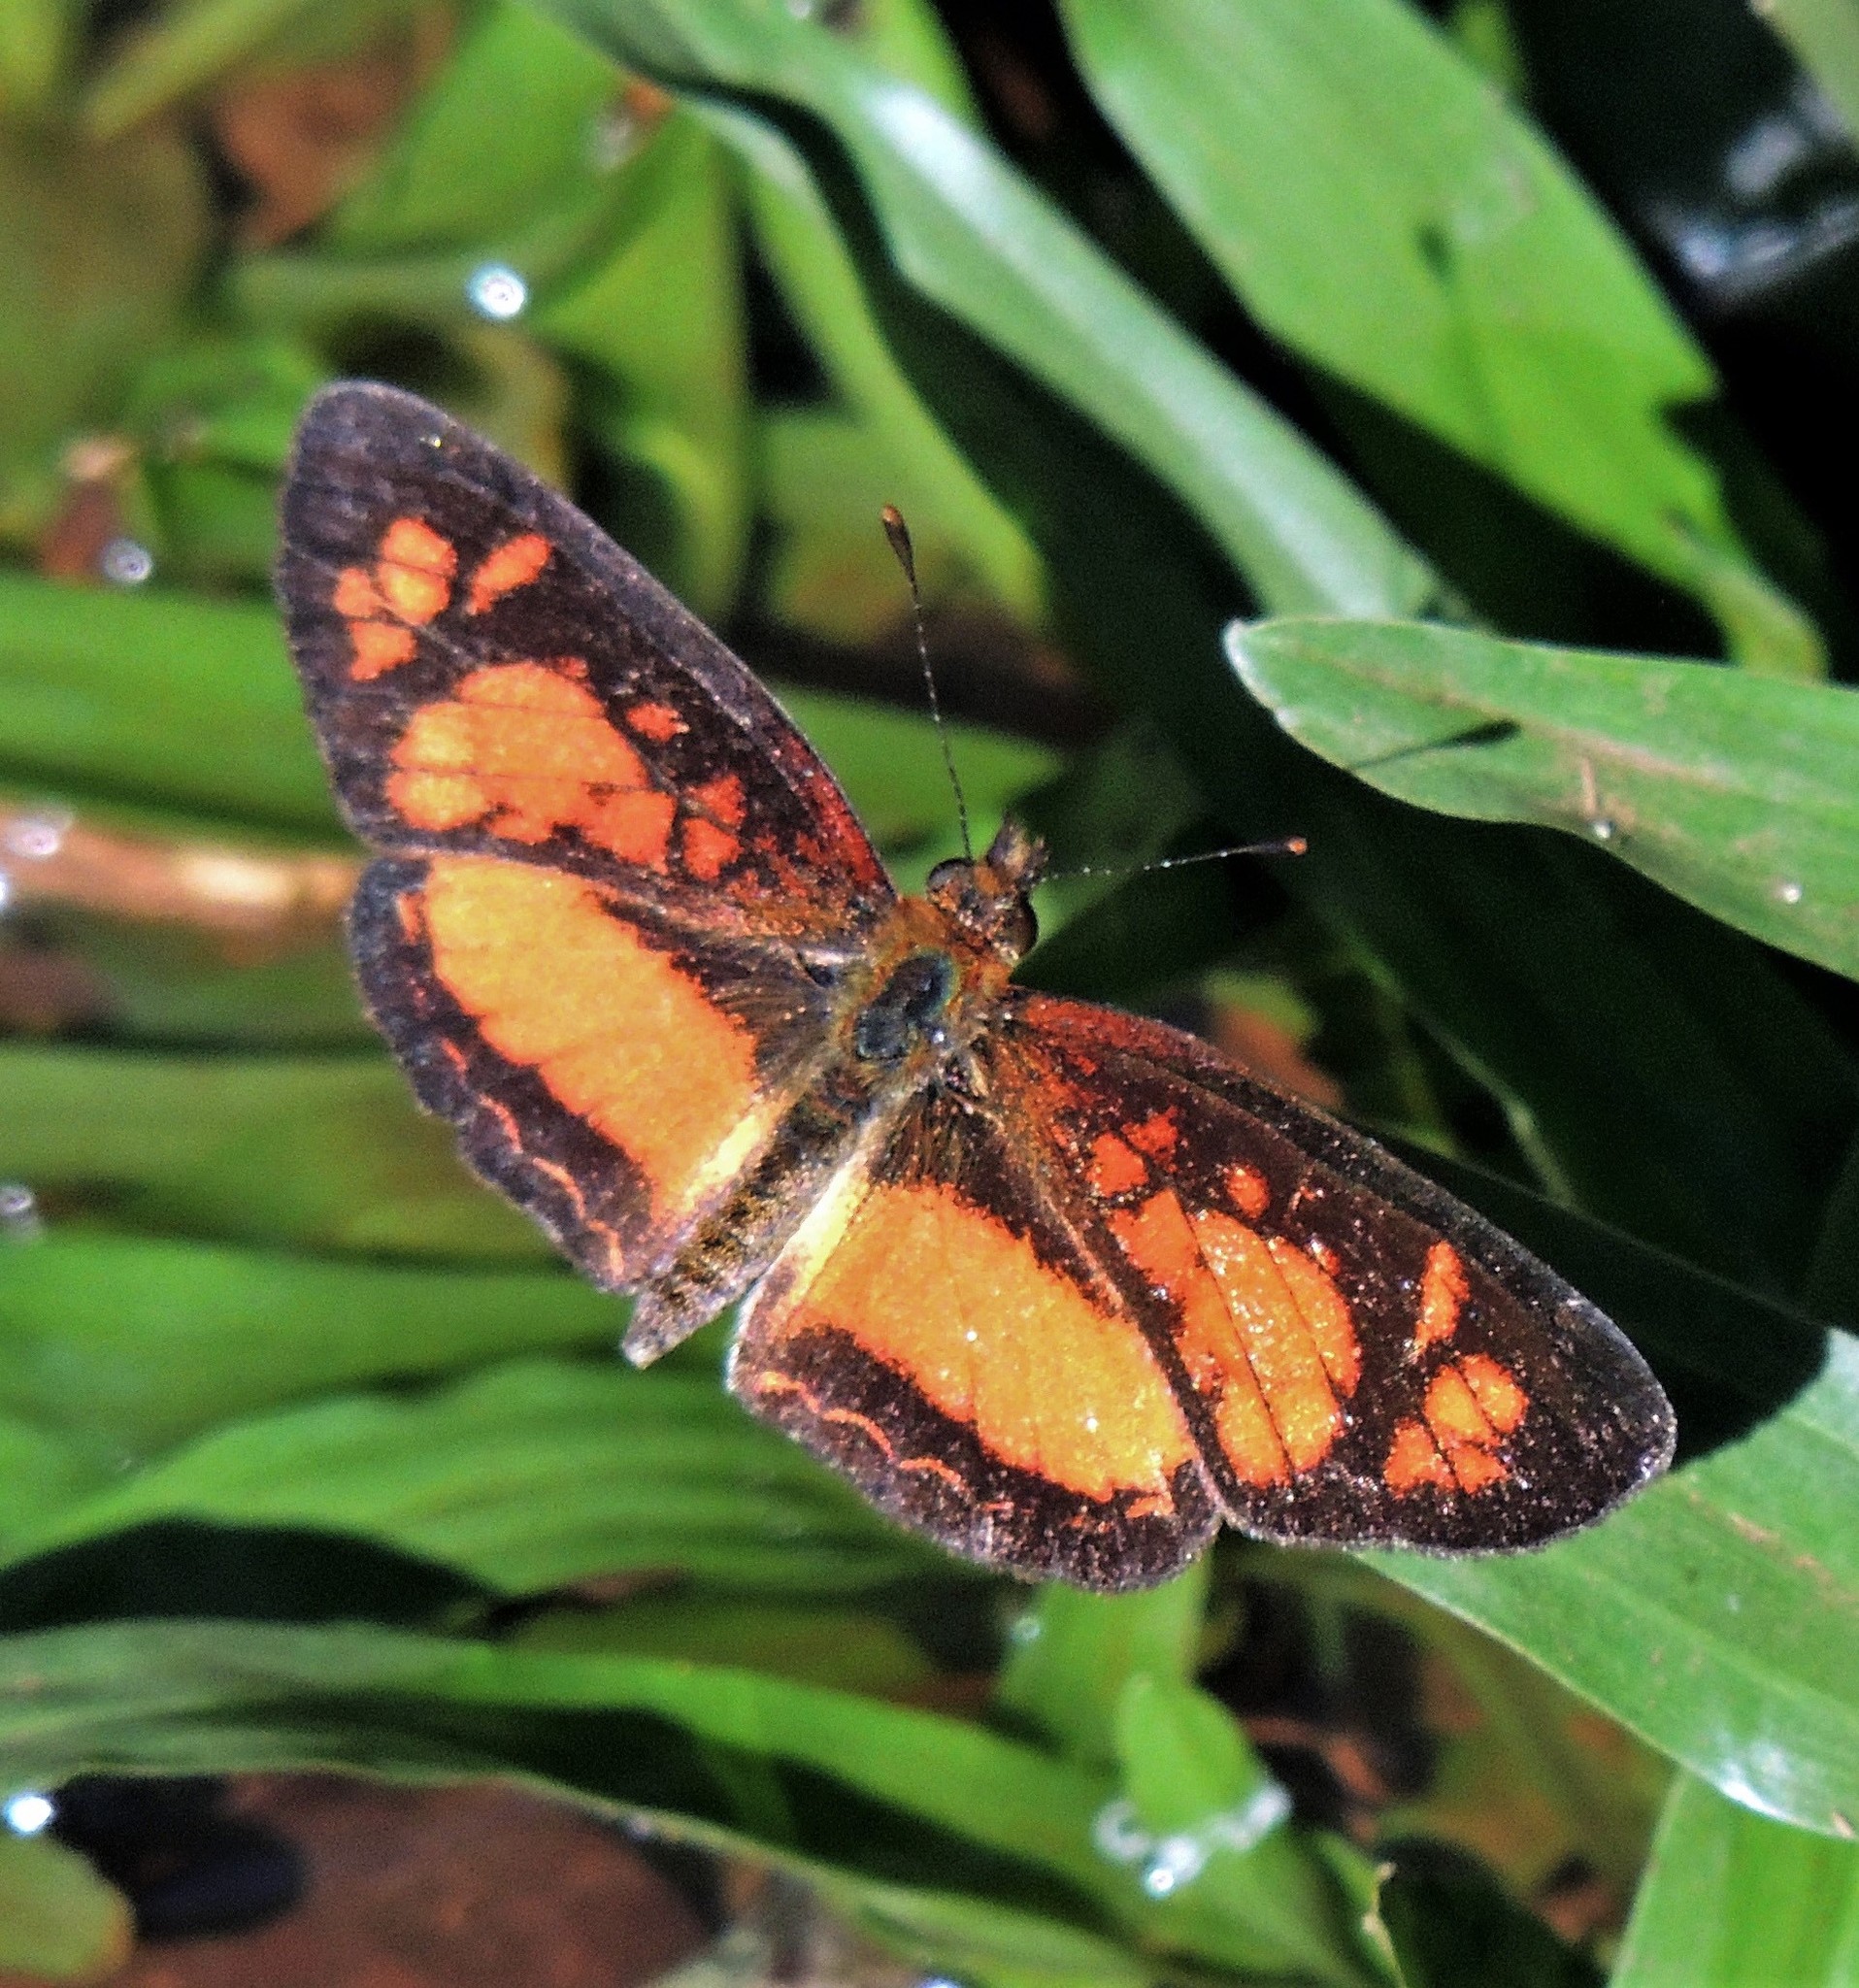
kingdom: Animalia
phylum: Arthropoda
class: Insecta
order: Lepidoptera
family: Nymphalidae
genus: Ortilia
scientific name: Ortilia dicoma
